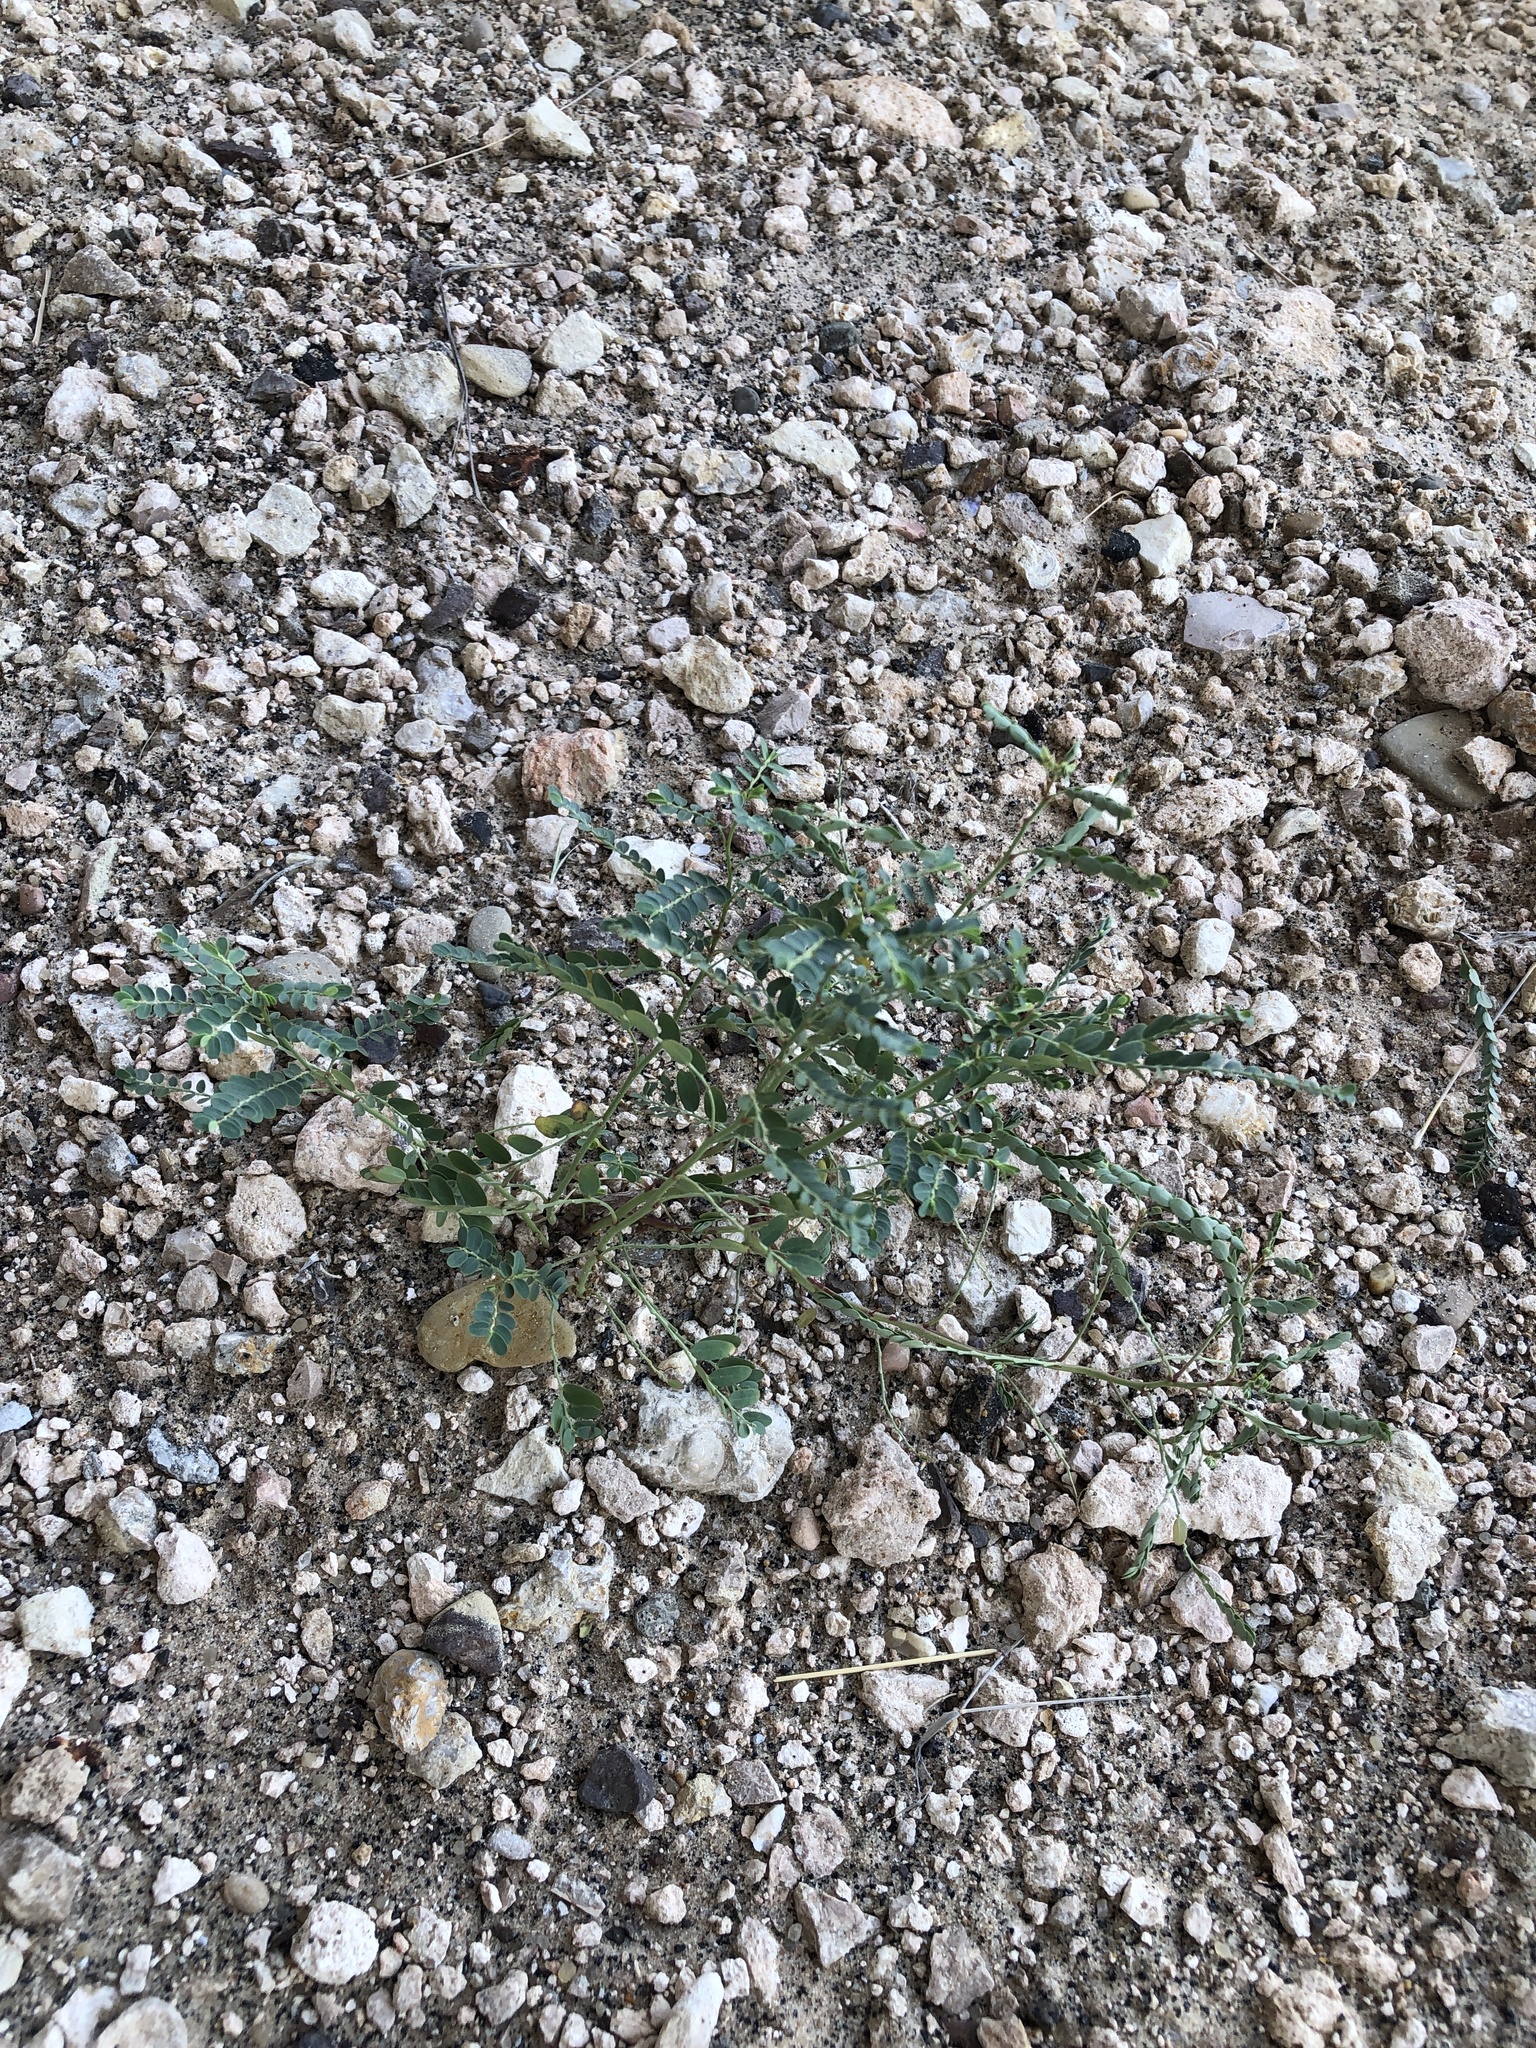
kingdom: Plantae
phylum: Tracheophyta
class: Magnoliopsida
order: Malpighiales
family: Phyllanthaceae
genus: Phyllanthus
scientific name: Phyllanthus abnormis
